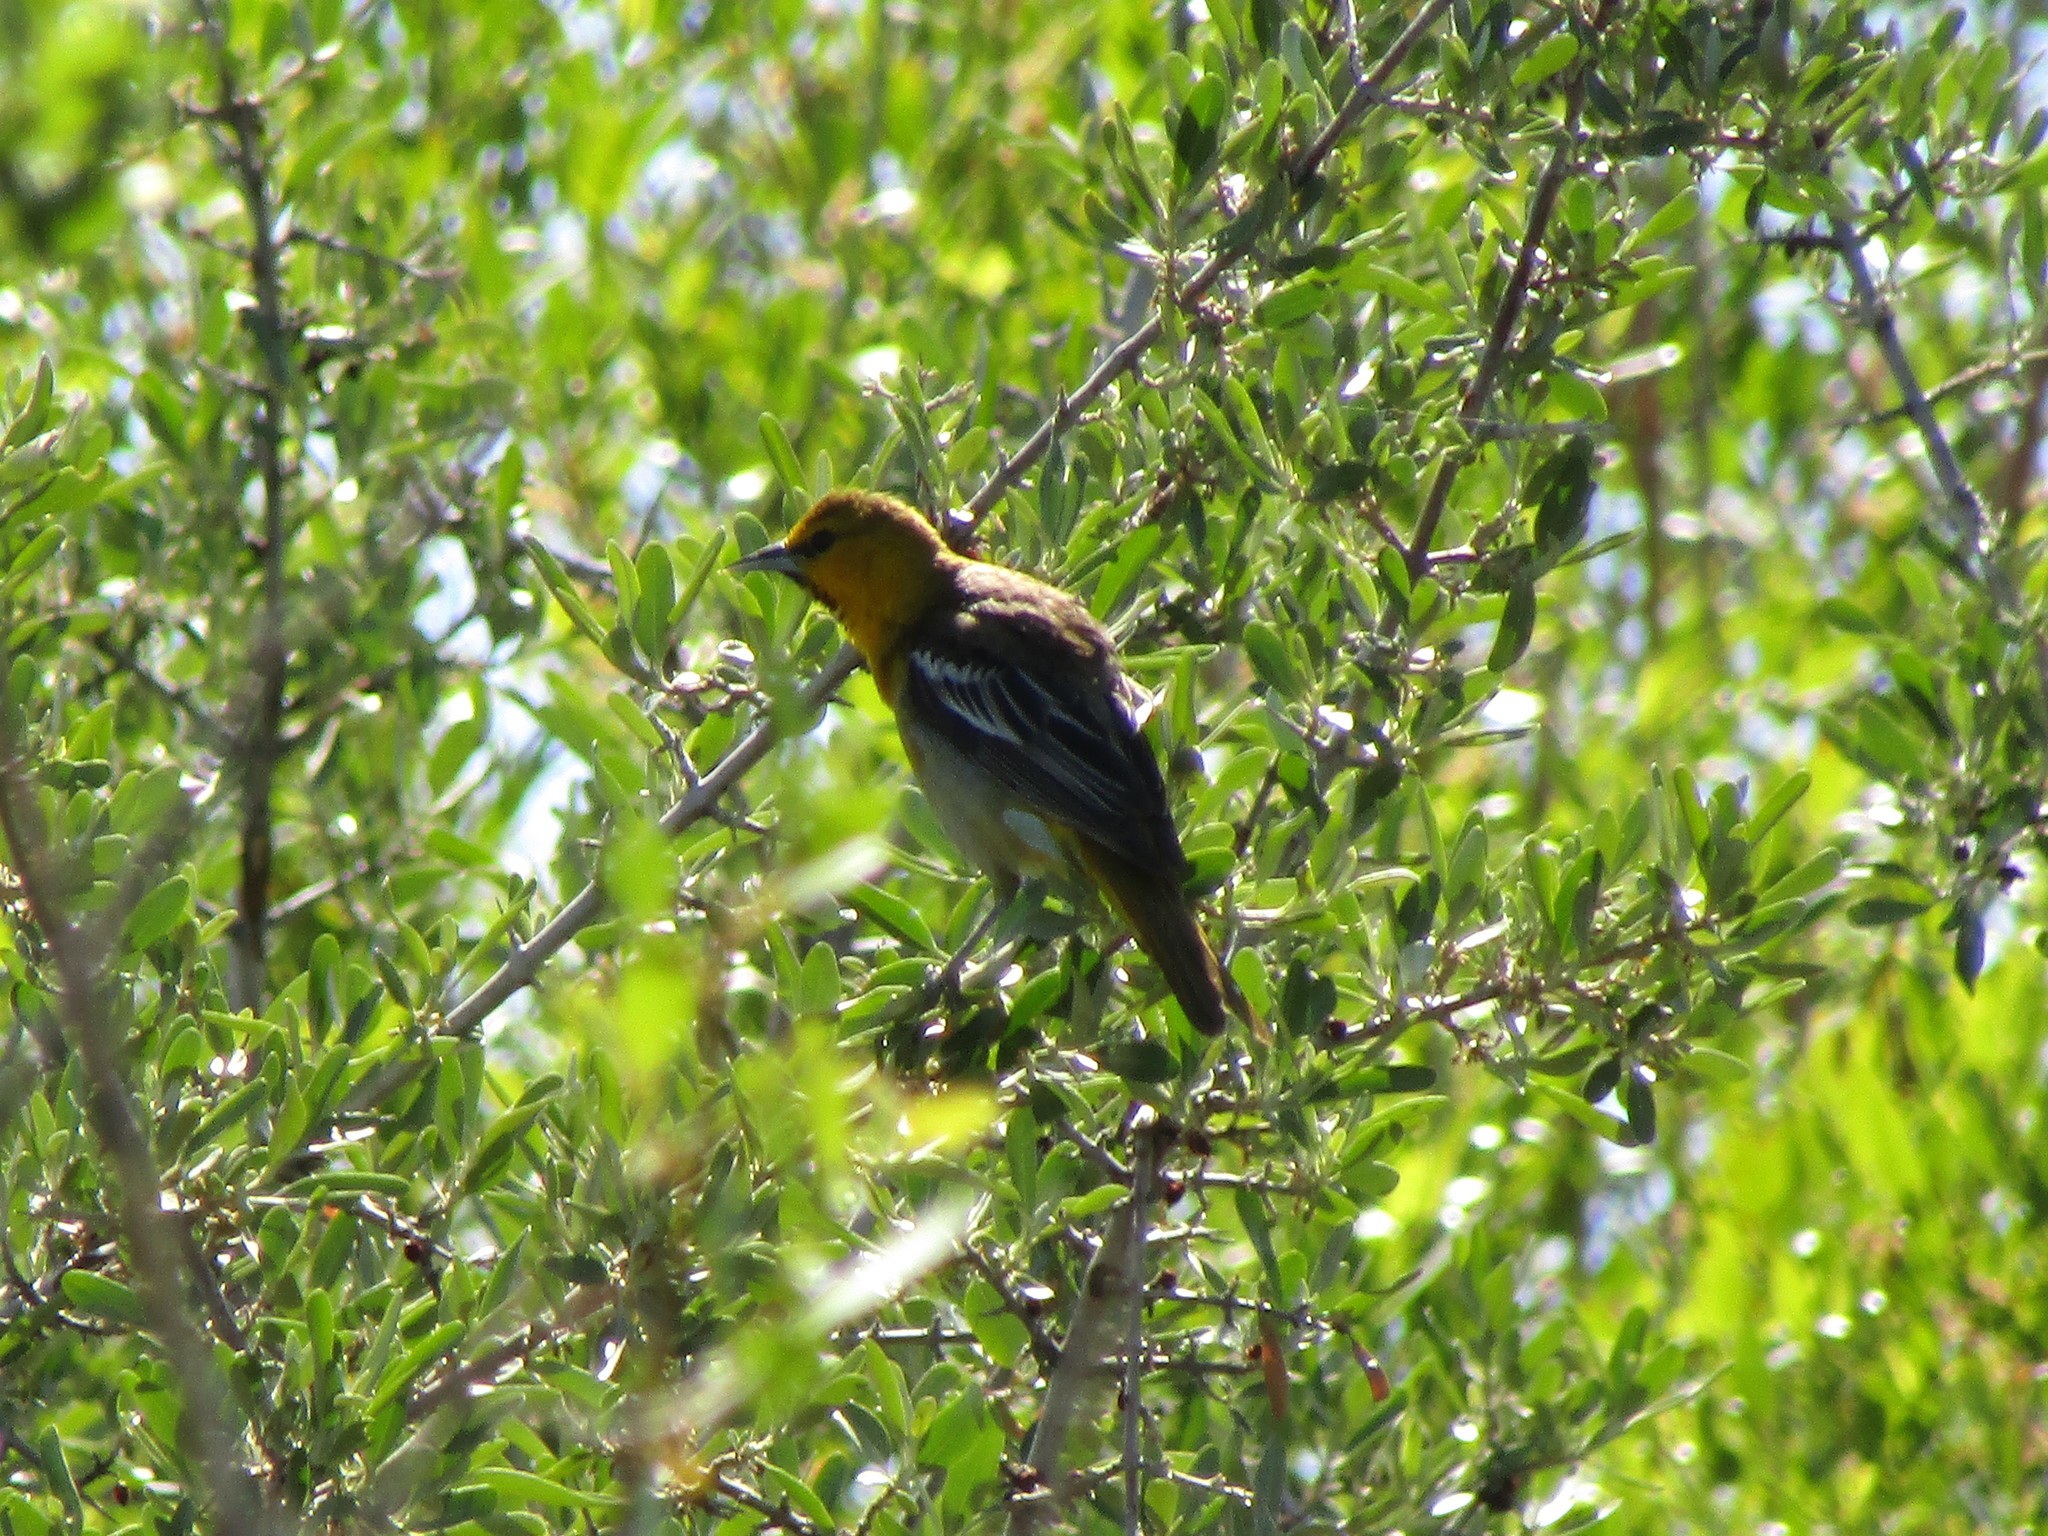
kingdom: Animalia
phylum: Chordata
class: Aves
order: Passeriformes
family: Icteridae
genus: Icterus
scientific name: Icterus bullockii
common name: Bullock's oriole
